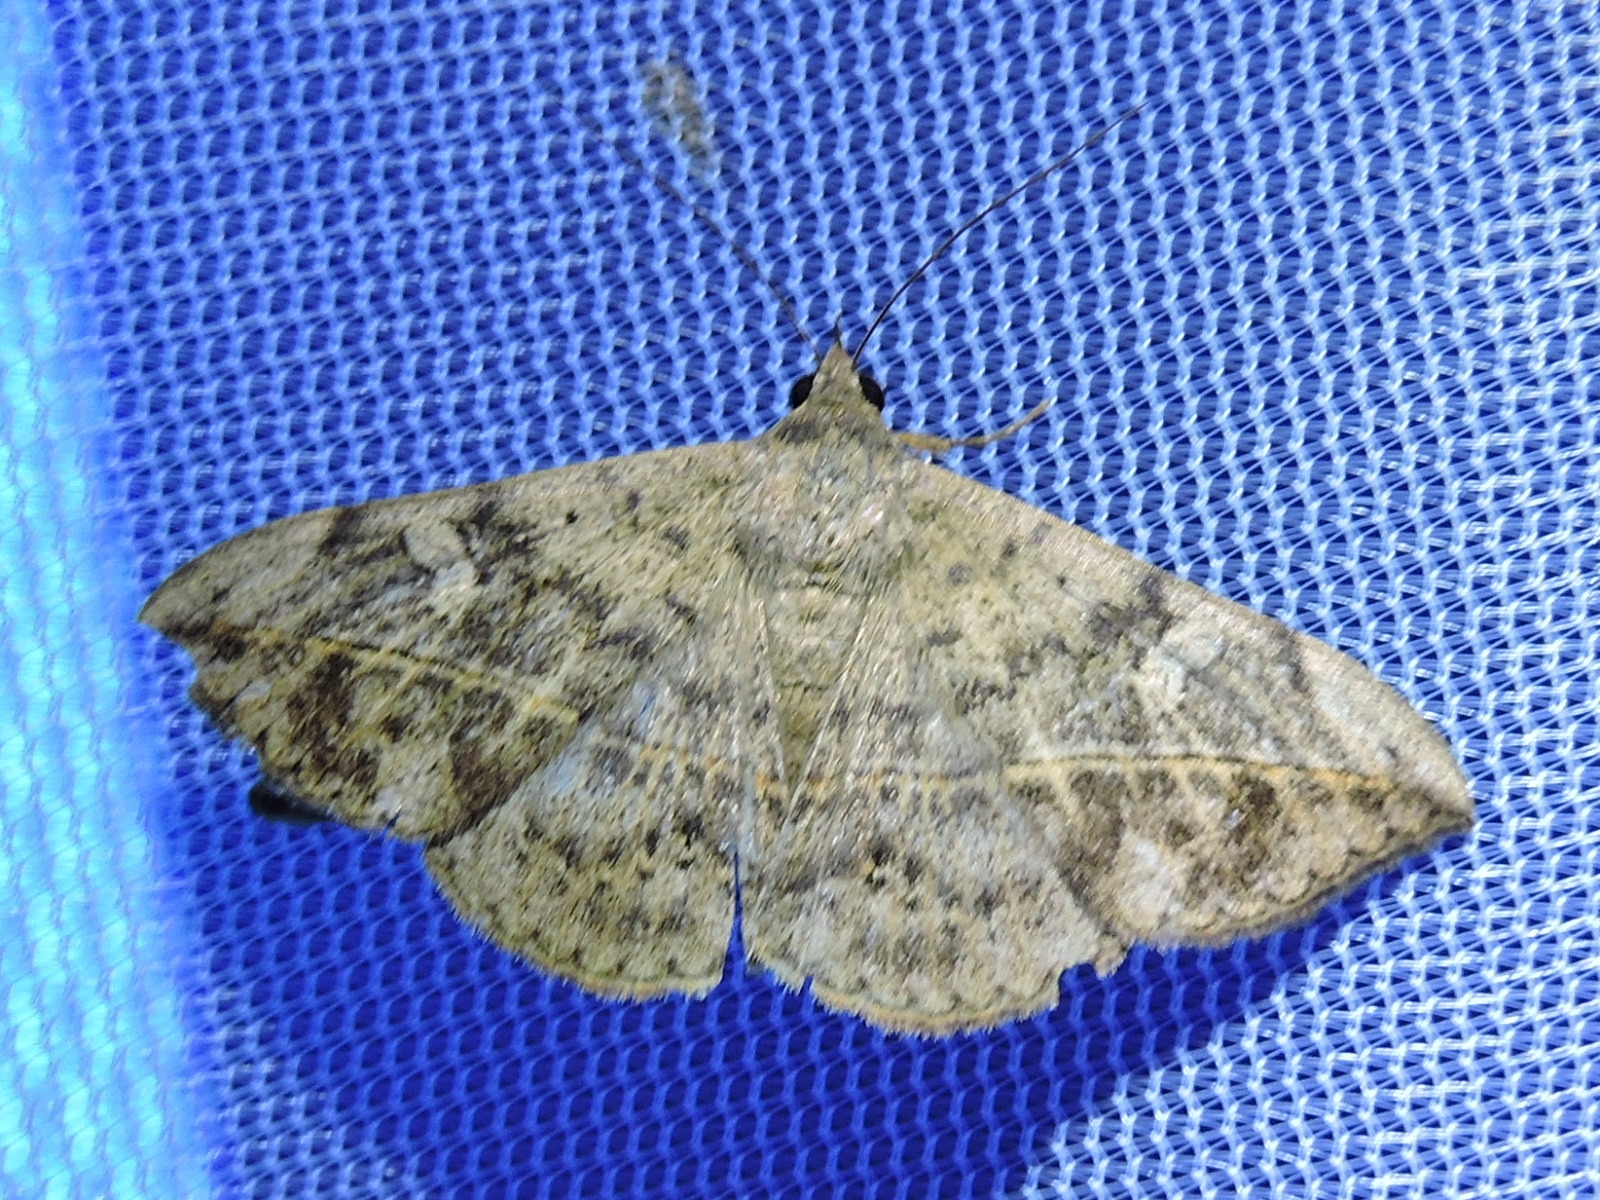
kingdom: Animalia
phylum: Arthropoda
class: Insecta
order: Lepidoptera
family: Erebidae
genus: Anticarsia
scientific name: Anticarsia gemmatalis
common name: Cutworm moth
